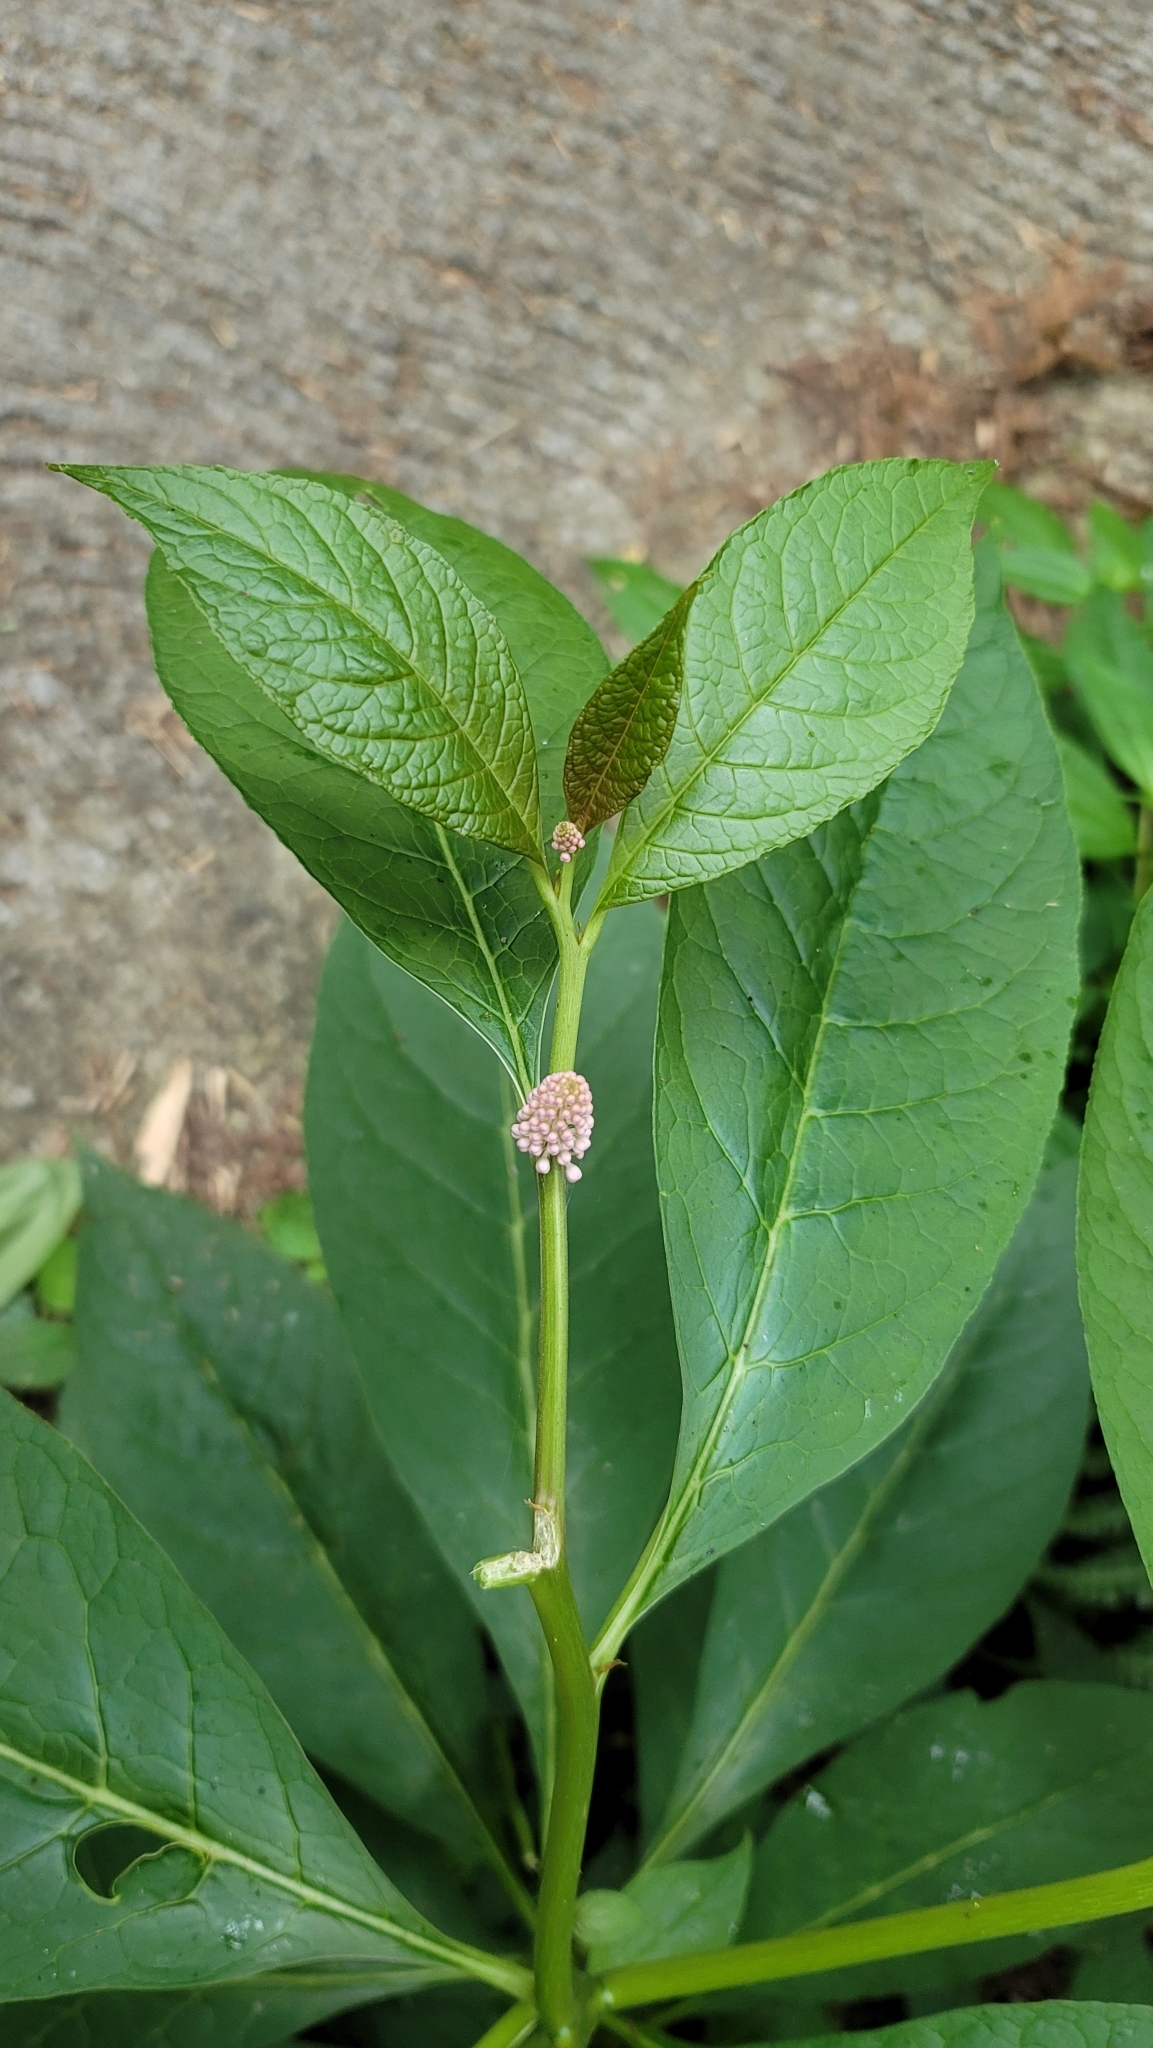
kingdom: Plantae
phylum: Tracheophyta
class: Magnoliopsida
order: Caryophyllales
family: Phytolaccaceae
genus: Phytolacca
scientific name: Phytolacca japonica
